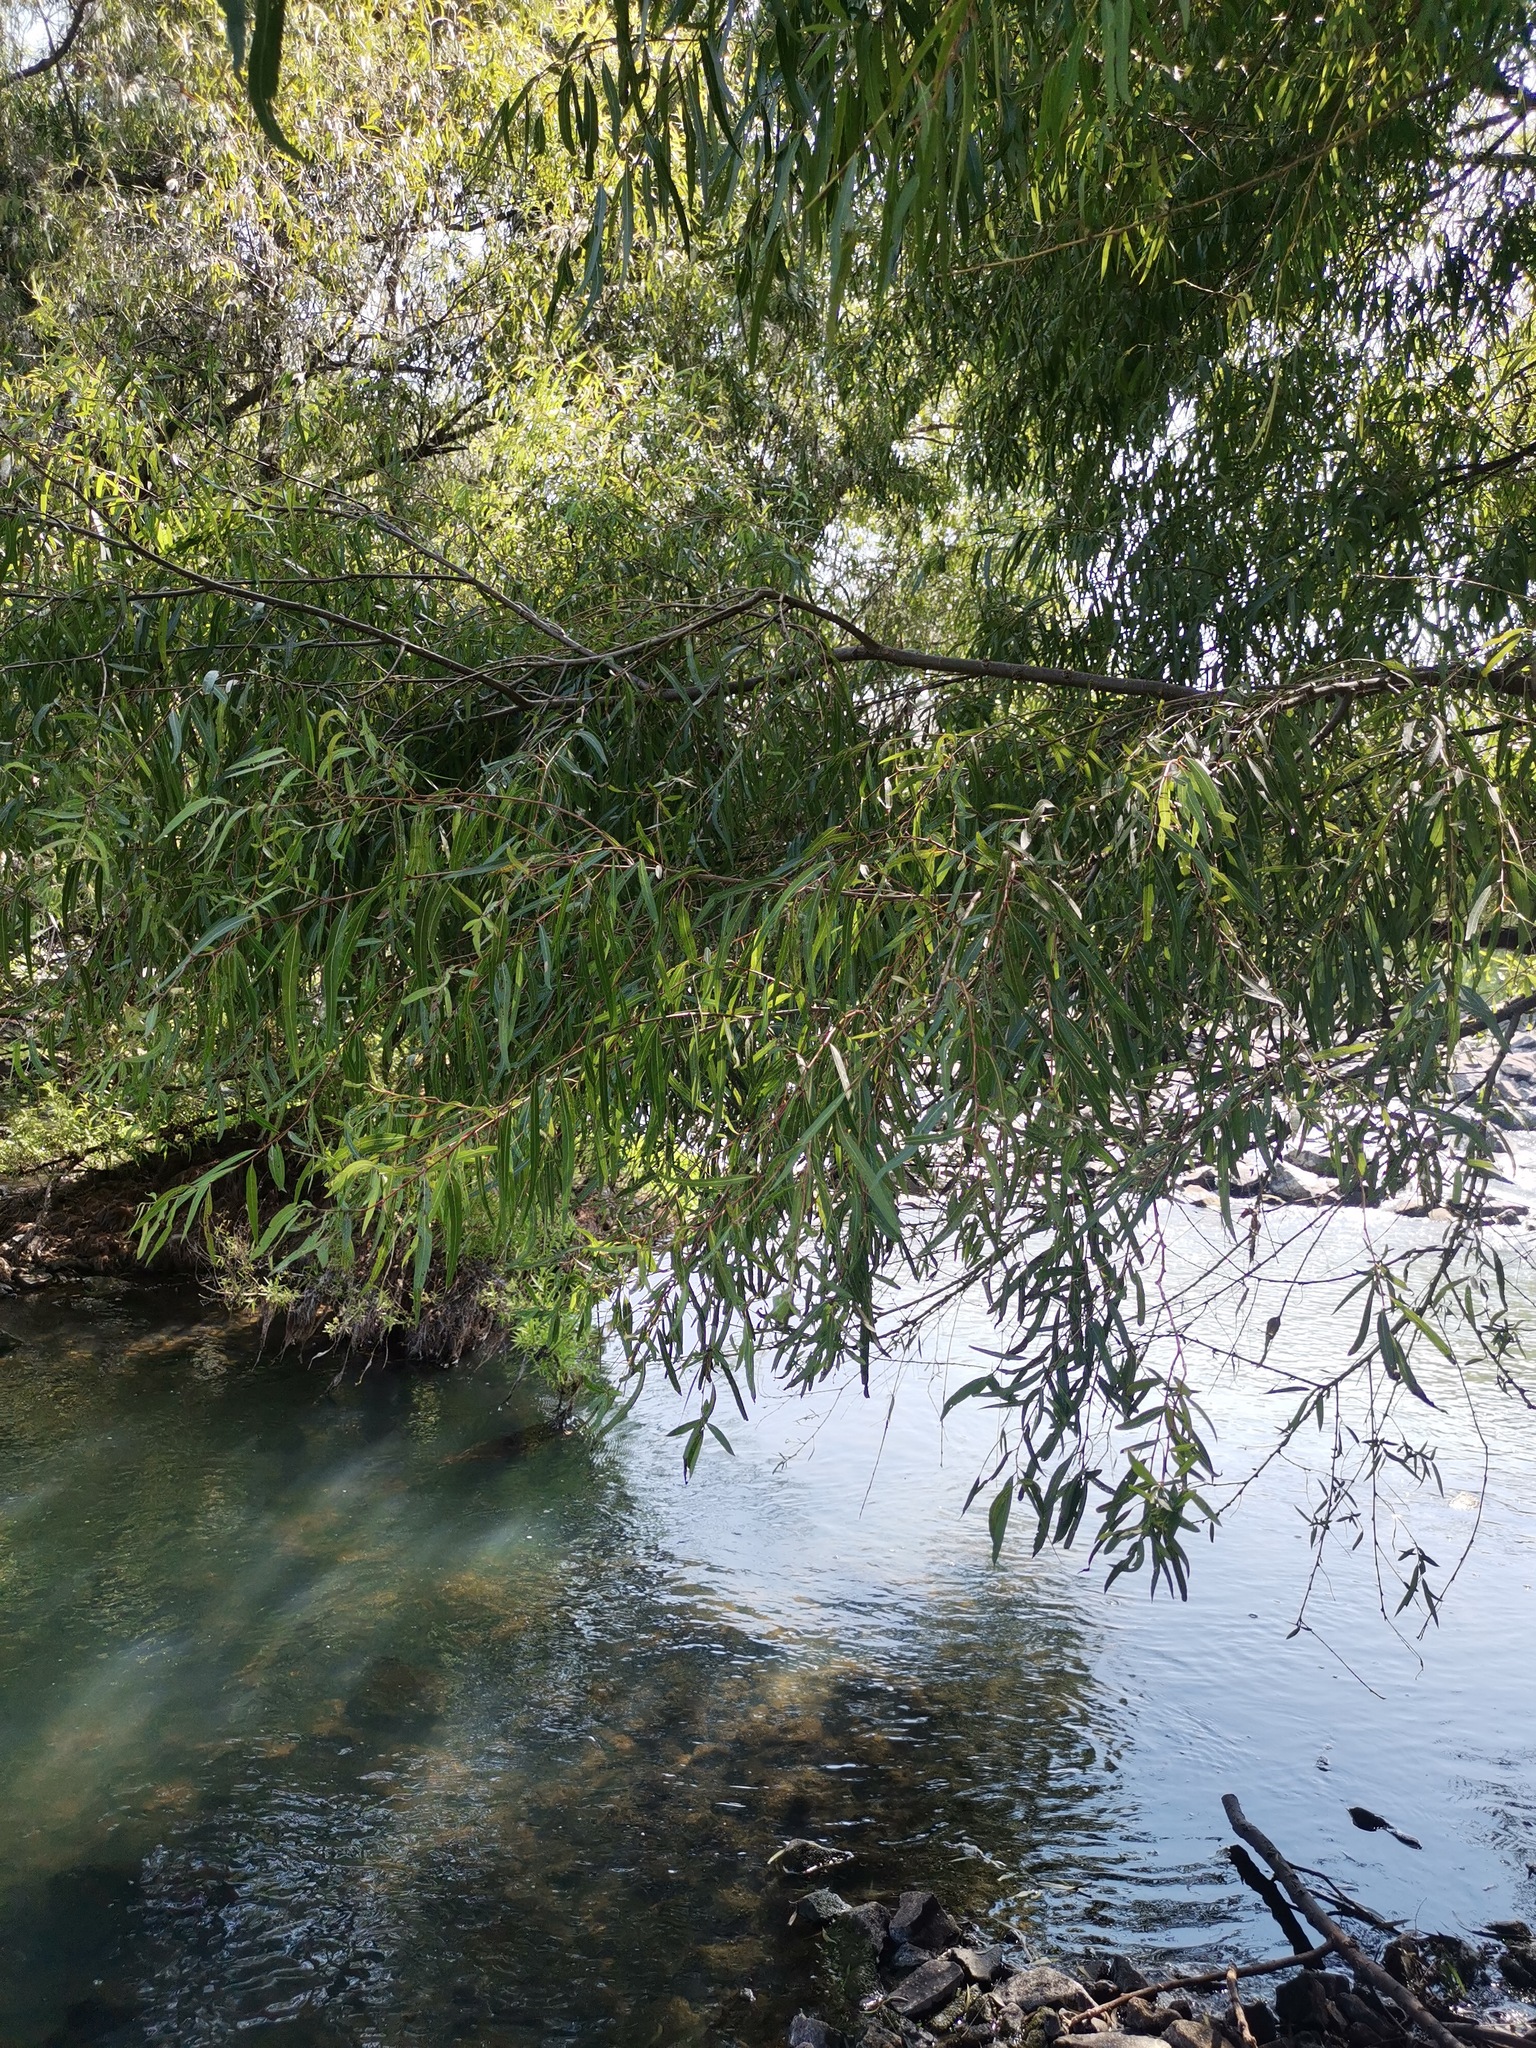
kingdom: Plantae
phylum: Tracheophyta
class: Magnoliopsida
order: Malpighiales
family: Salicaceae
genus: Salix
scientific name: Salix humboldtiana
